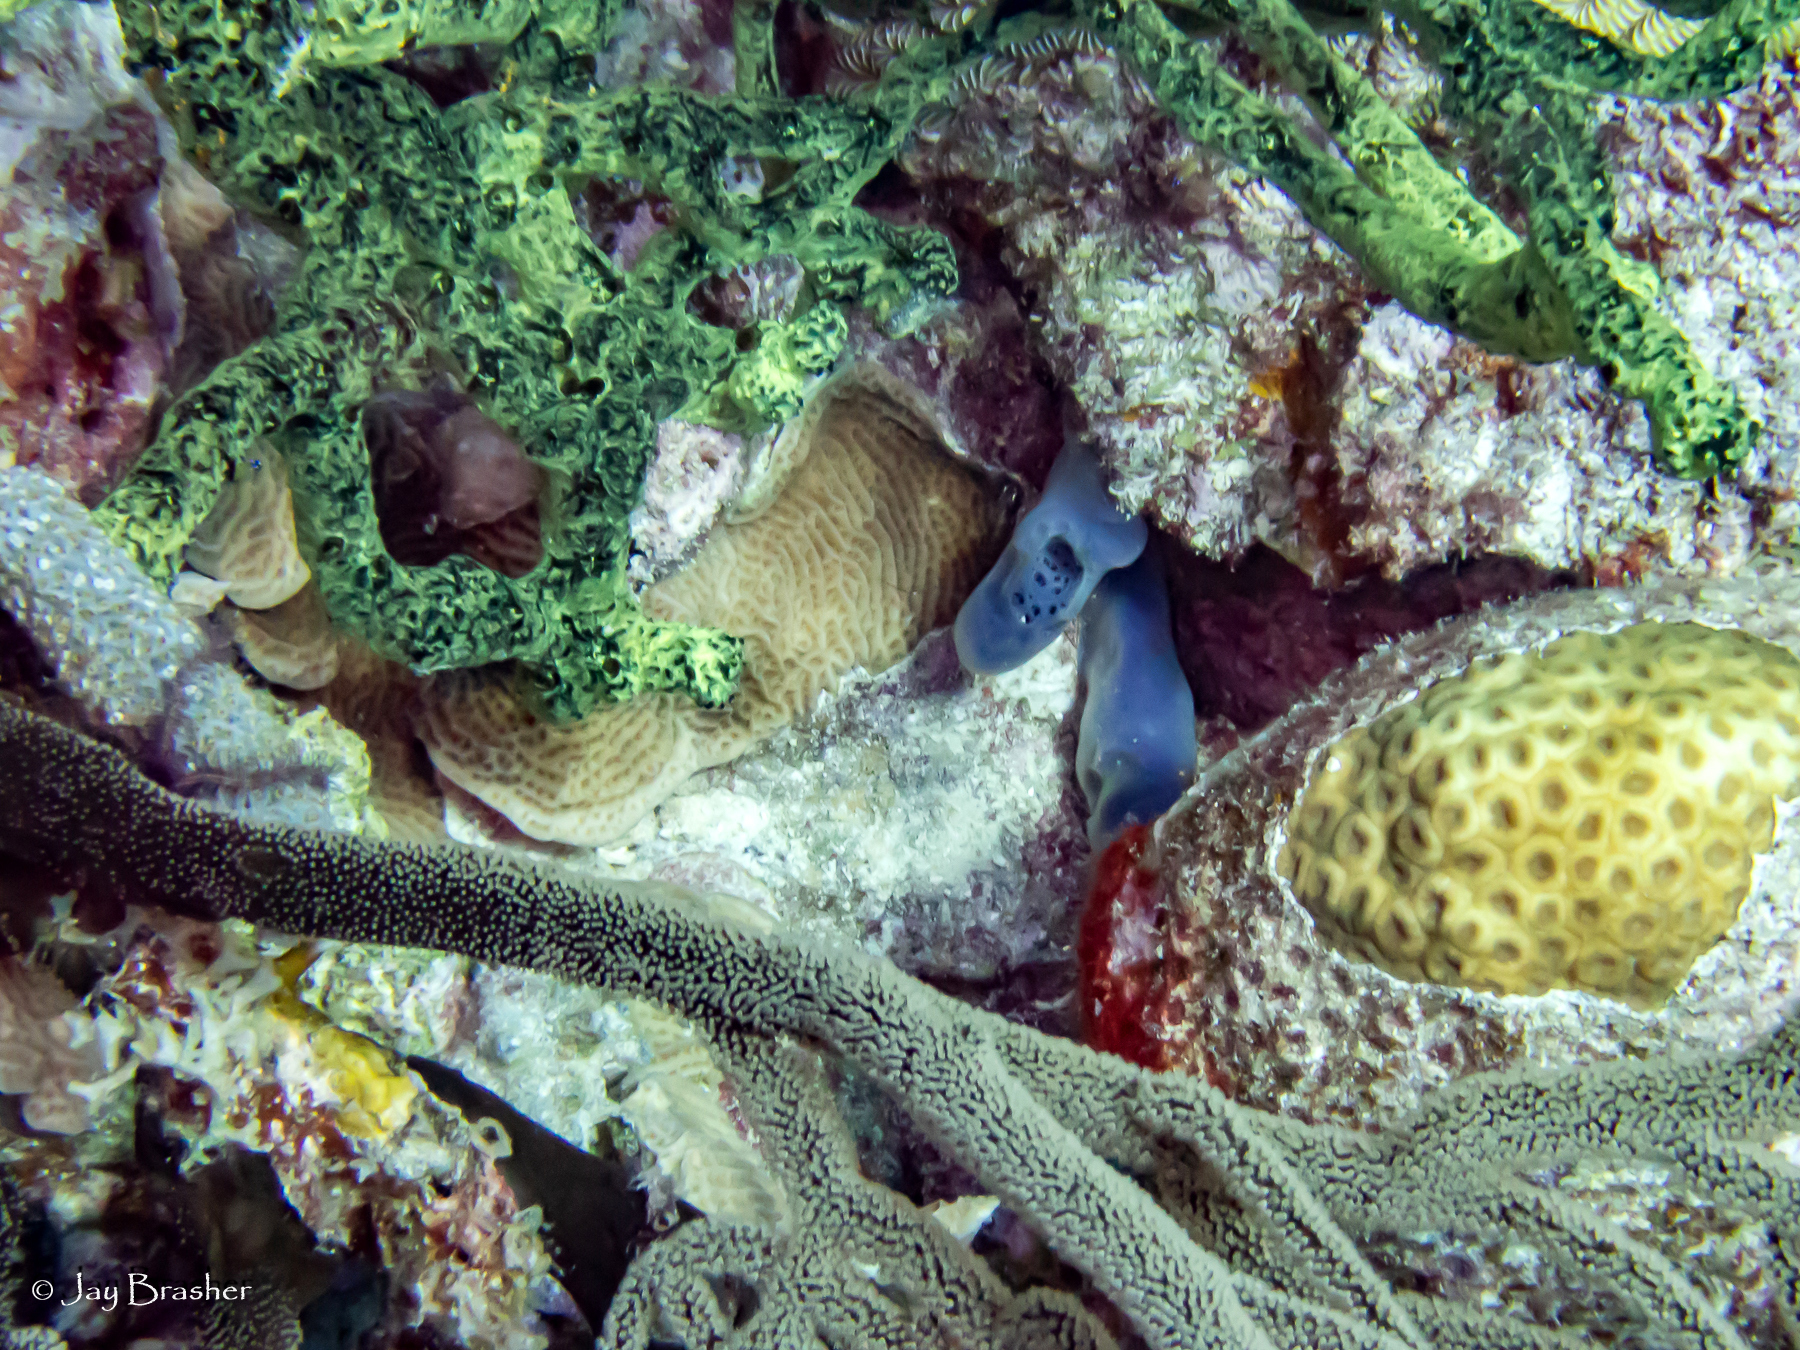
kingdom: Animalia
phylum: Porifera
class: Demospongiae
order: Poecilosclerida
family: Iotrochotidae
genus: Iotrochota
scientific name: Iotrochota birotulata
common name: Purple bleeding sponge
